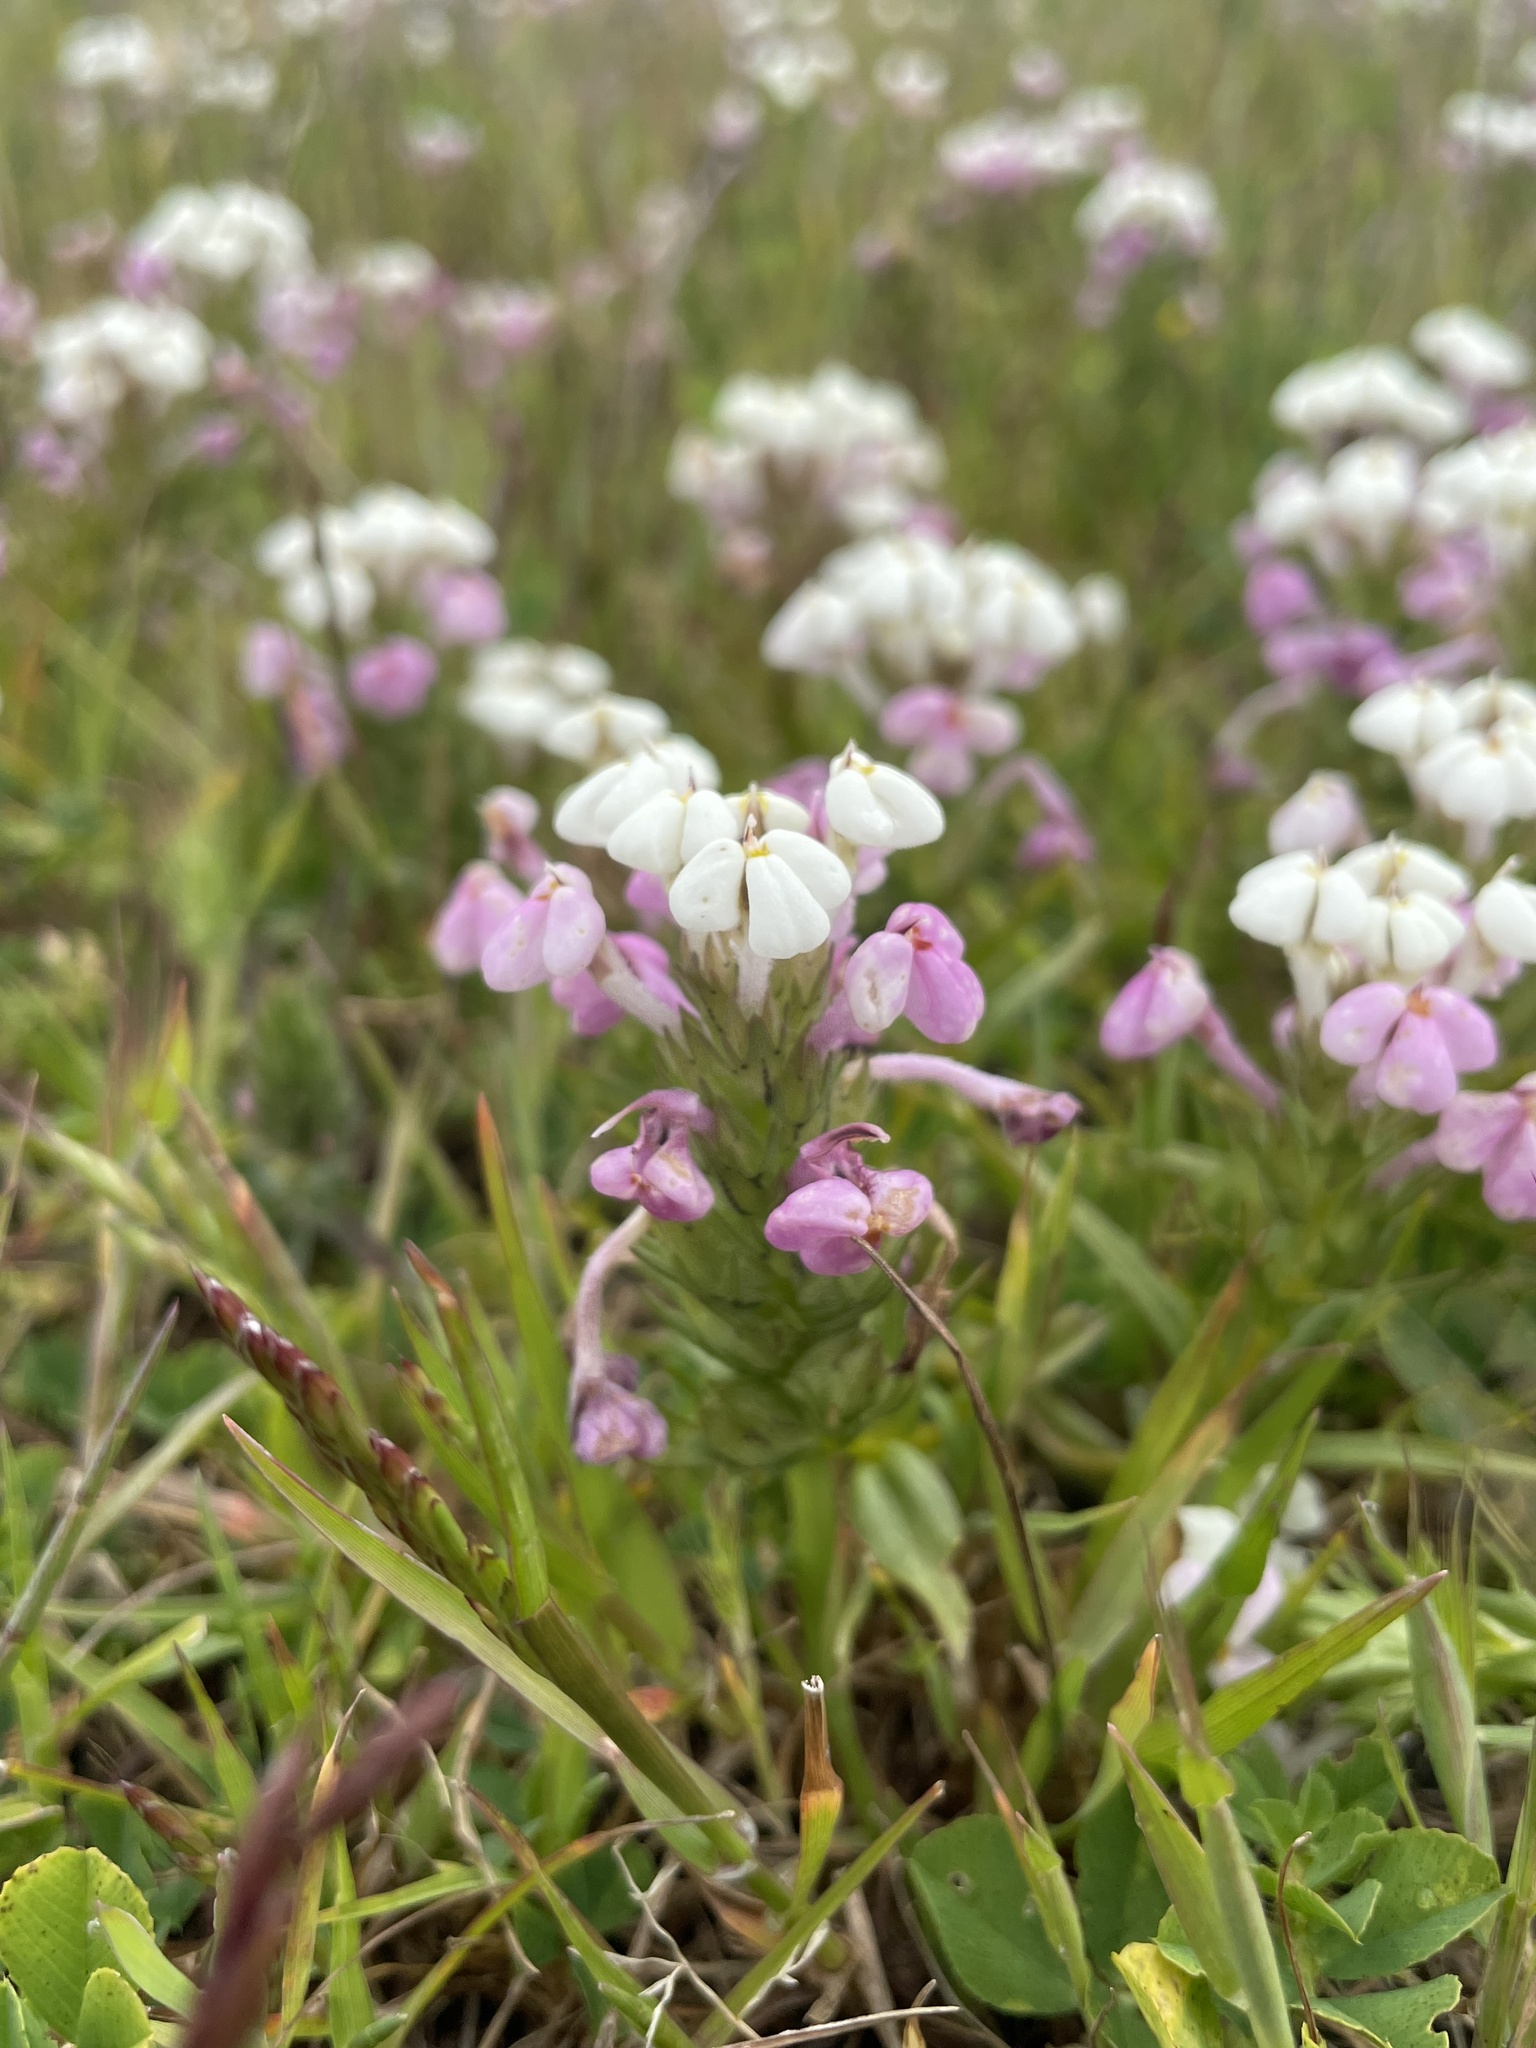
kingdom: Plantae
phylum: Tracheophyta
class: Magnoliopsida
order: Lamiales
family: Orobanchaceae
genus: Triphysaria
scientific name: Triphysaria versicolor
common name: Bearded false owl-clover
